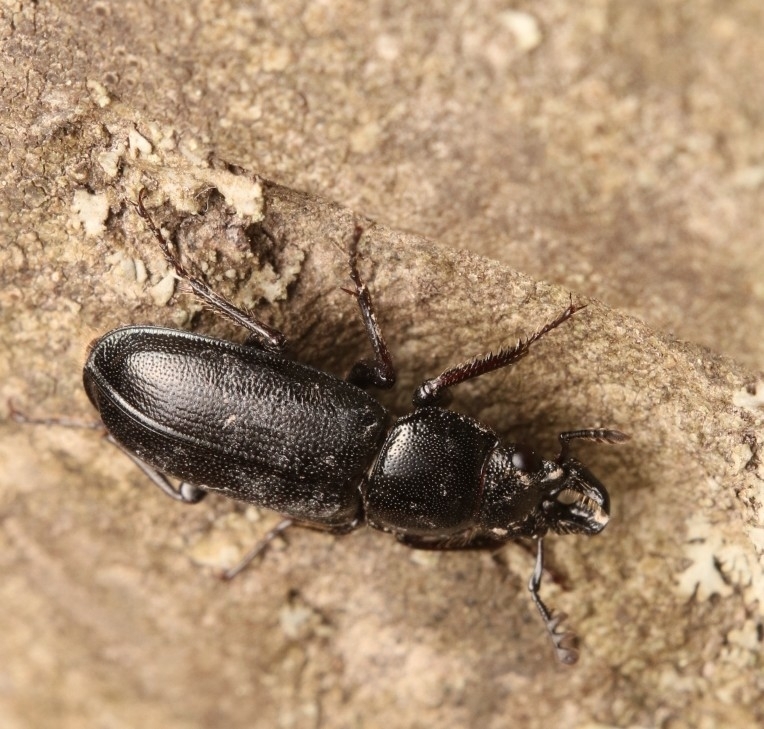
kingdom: Animalia
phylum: Arthropoda
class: Insecta
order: Coleoptera
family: Lucanidae
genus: Platycerus
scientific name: Platycerus quercus
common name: Oak stag beetle
